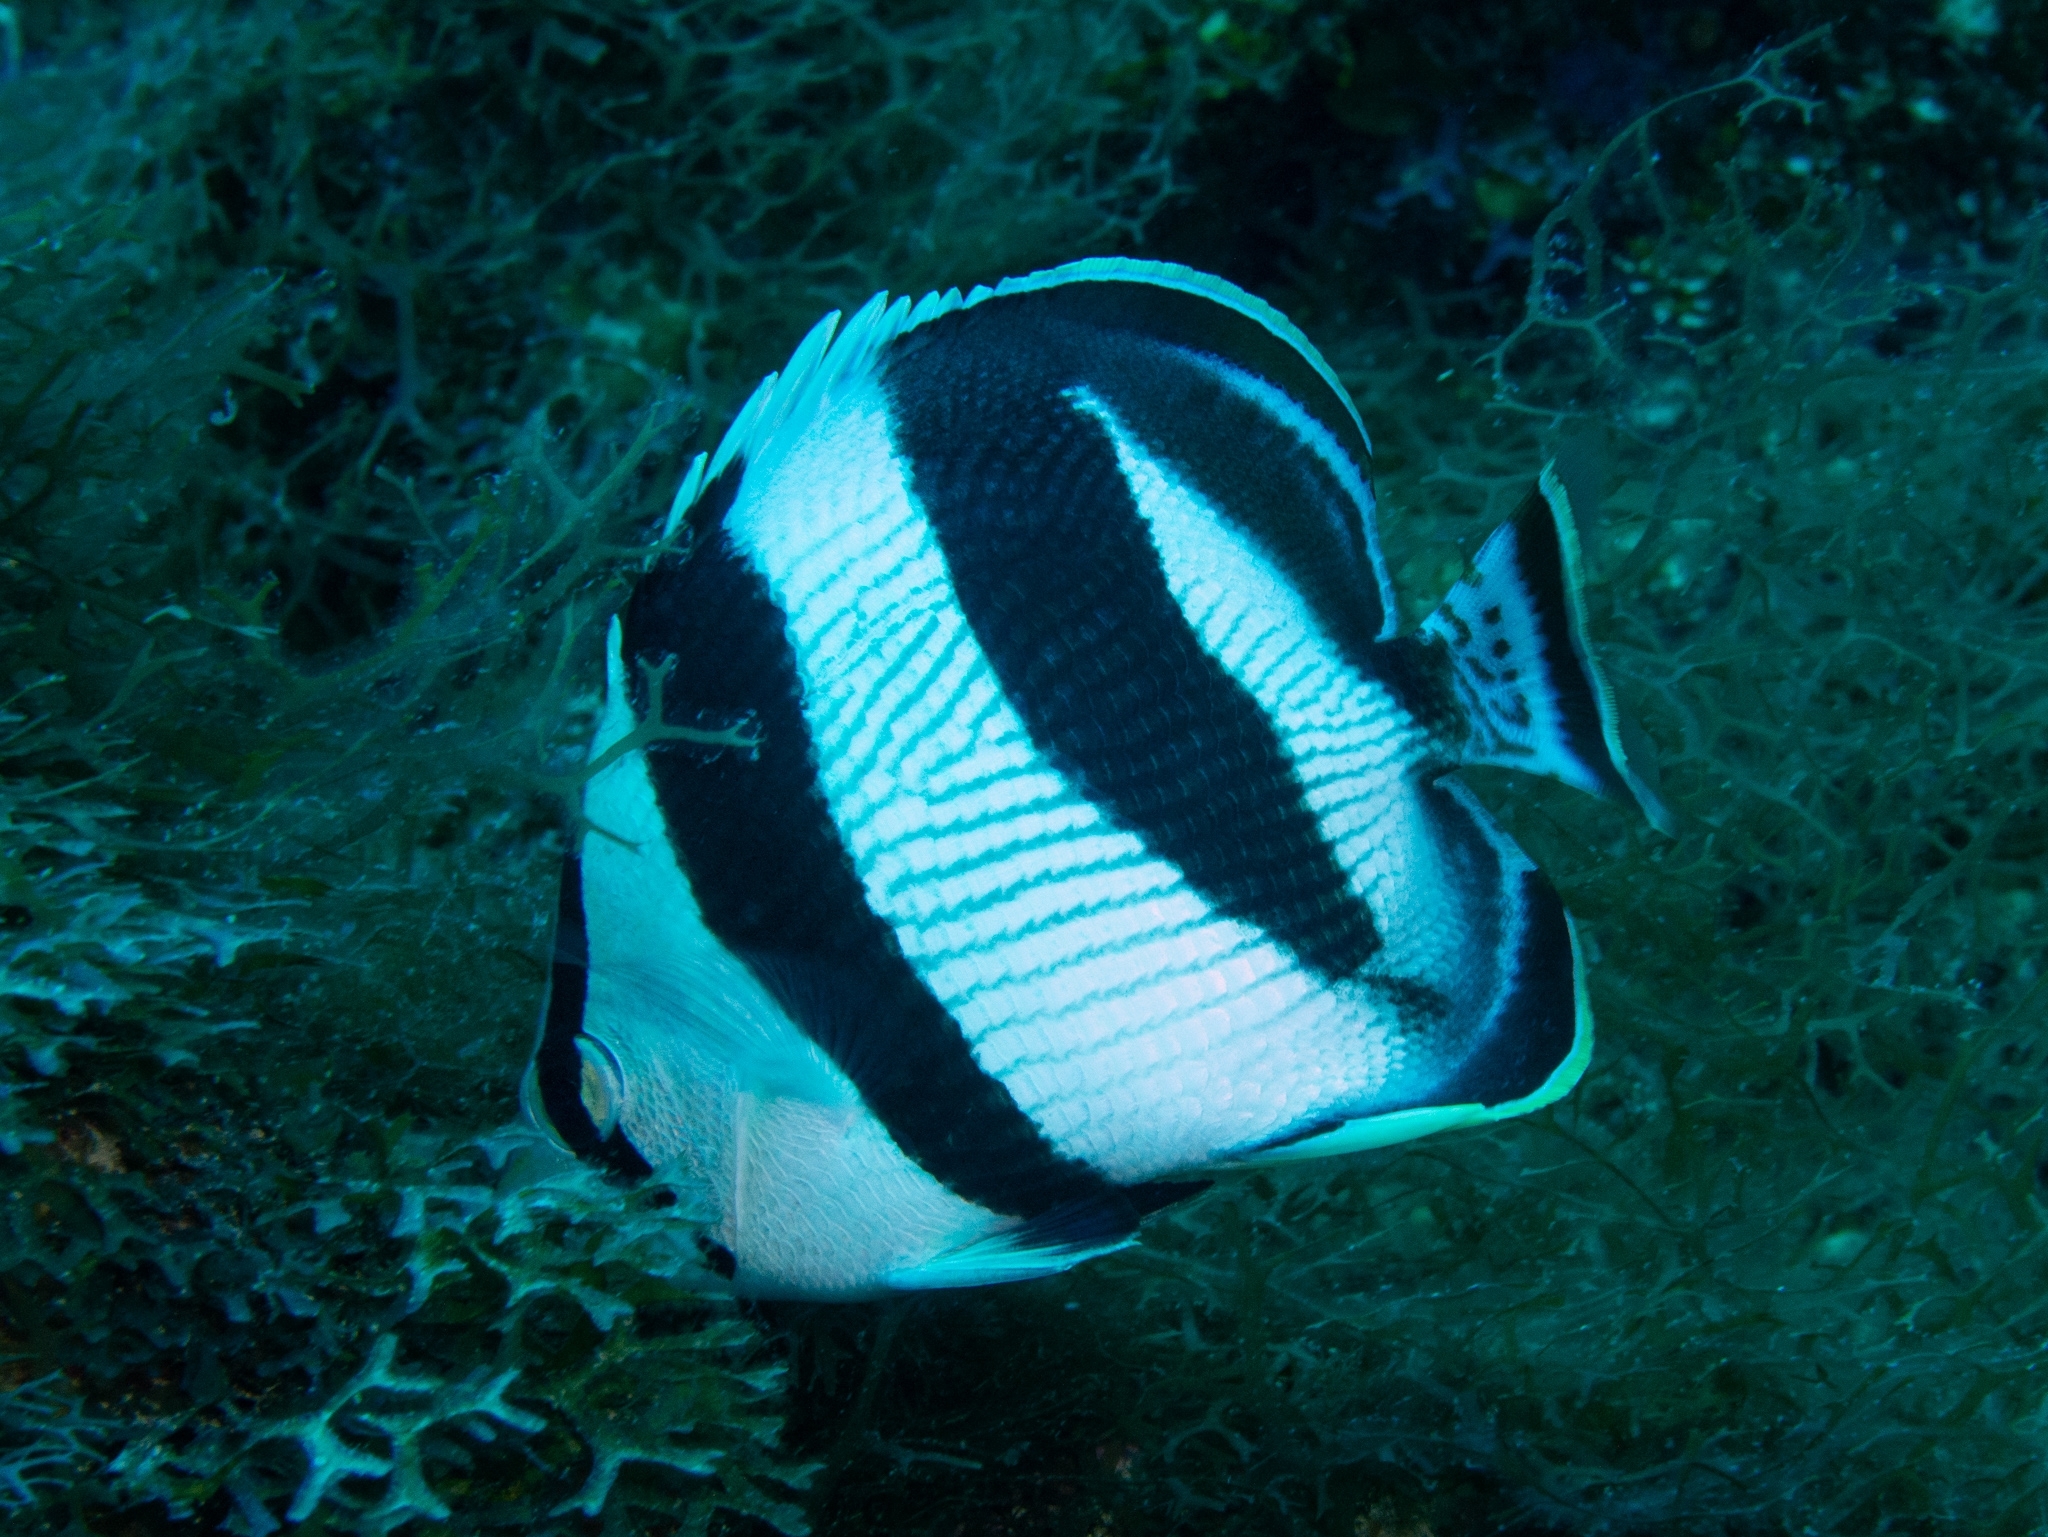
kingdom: Animalia
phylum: Chordata
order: Perciformes
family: Chaetodontidae
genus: Chaetodon
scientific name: Chaetodon striatus
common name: Banded butterflyfish
